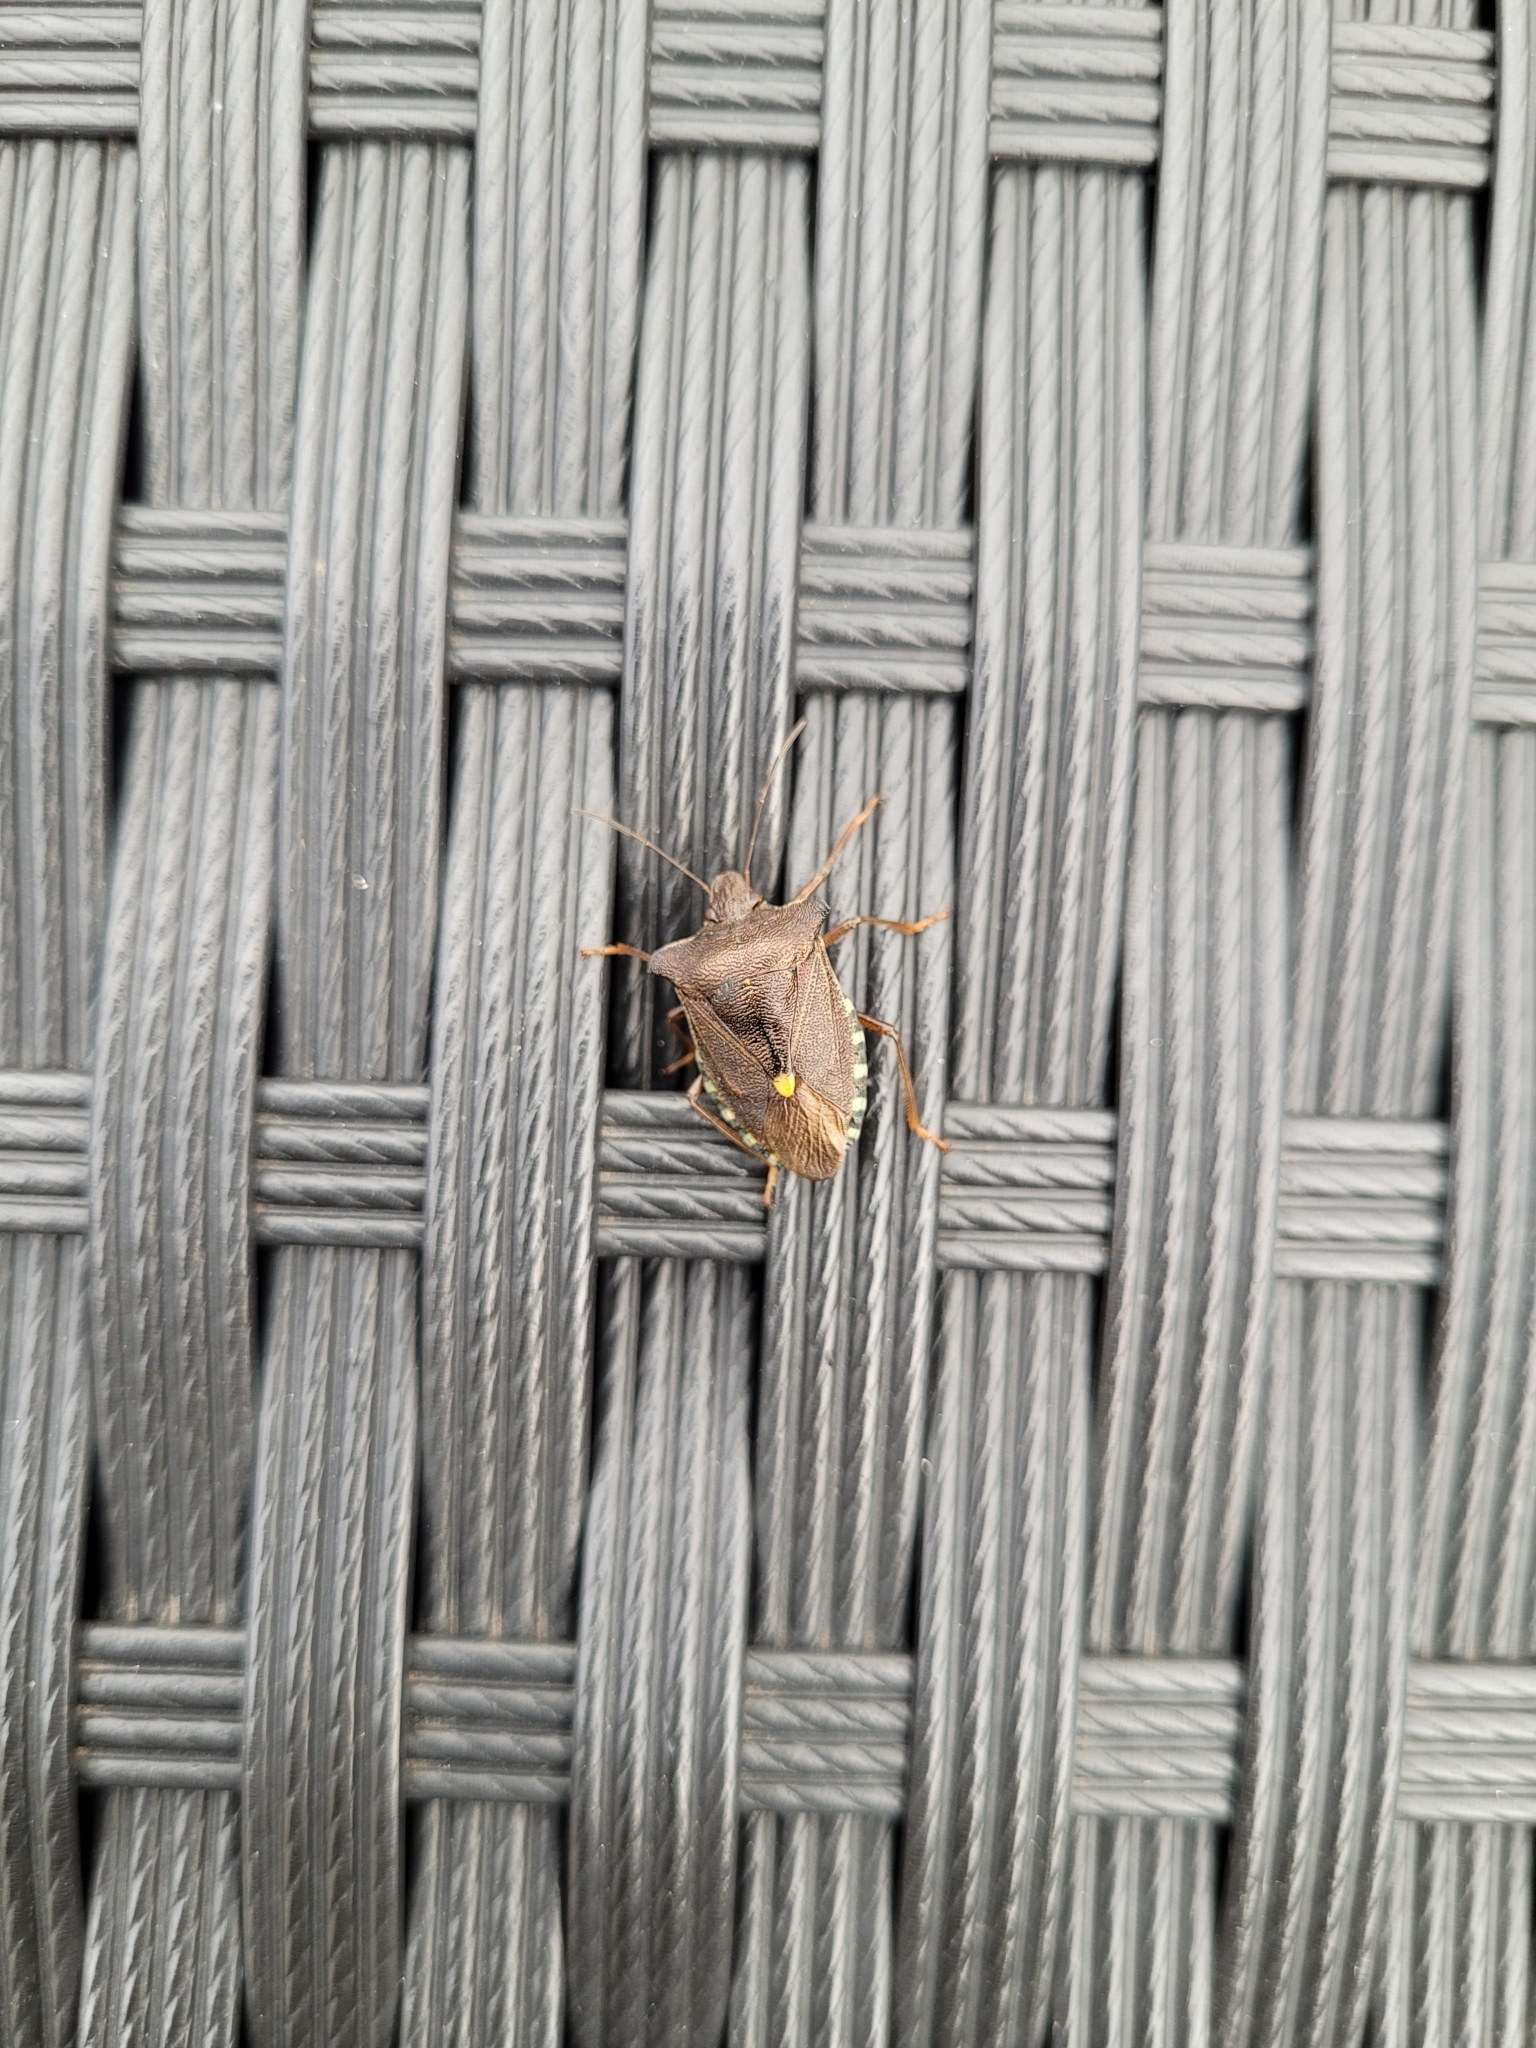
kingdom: Animalia
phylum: Arthropoda
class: Insecta
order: Hemiptera
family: Pentatomidae
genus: Pentatoma
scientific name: Pentatoma rufipes
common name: Forest bug
